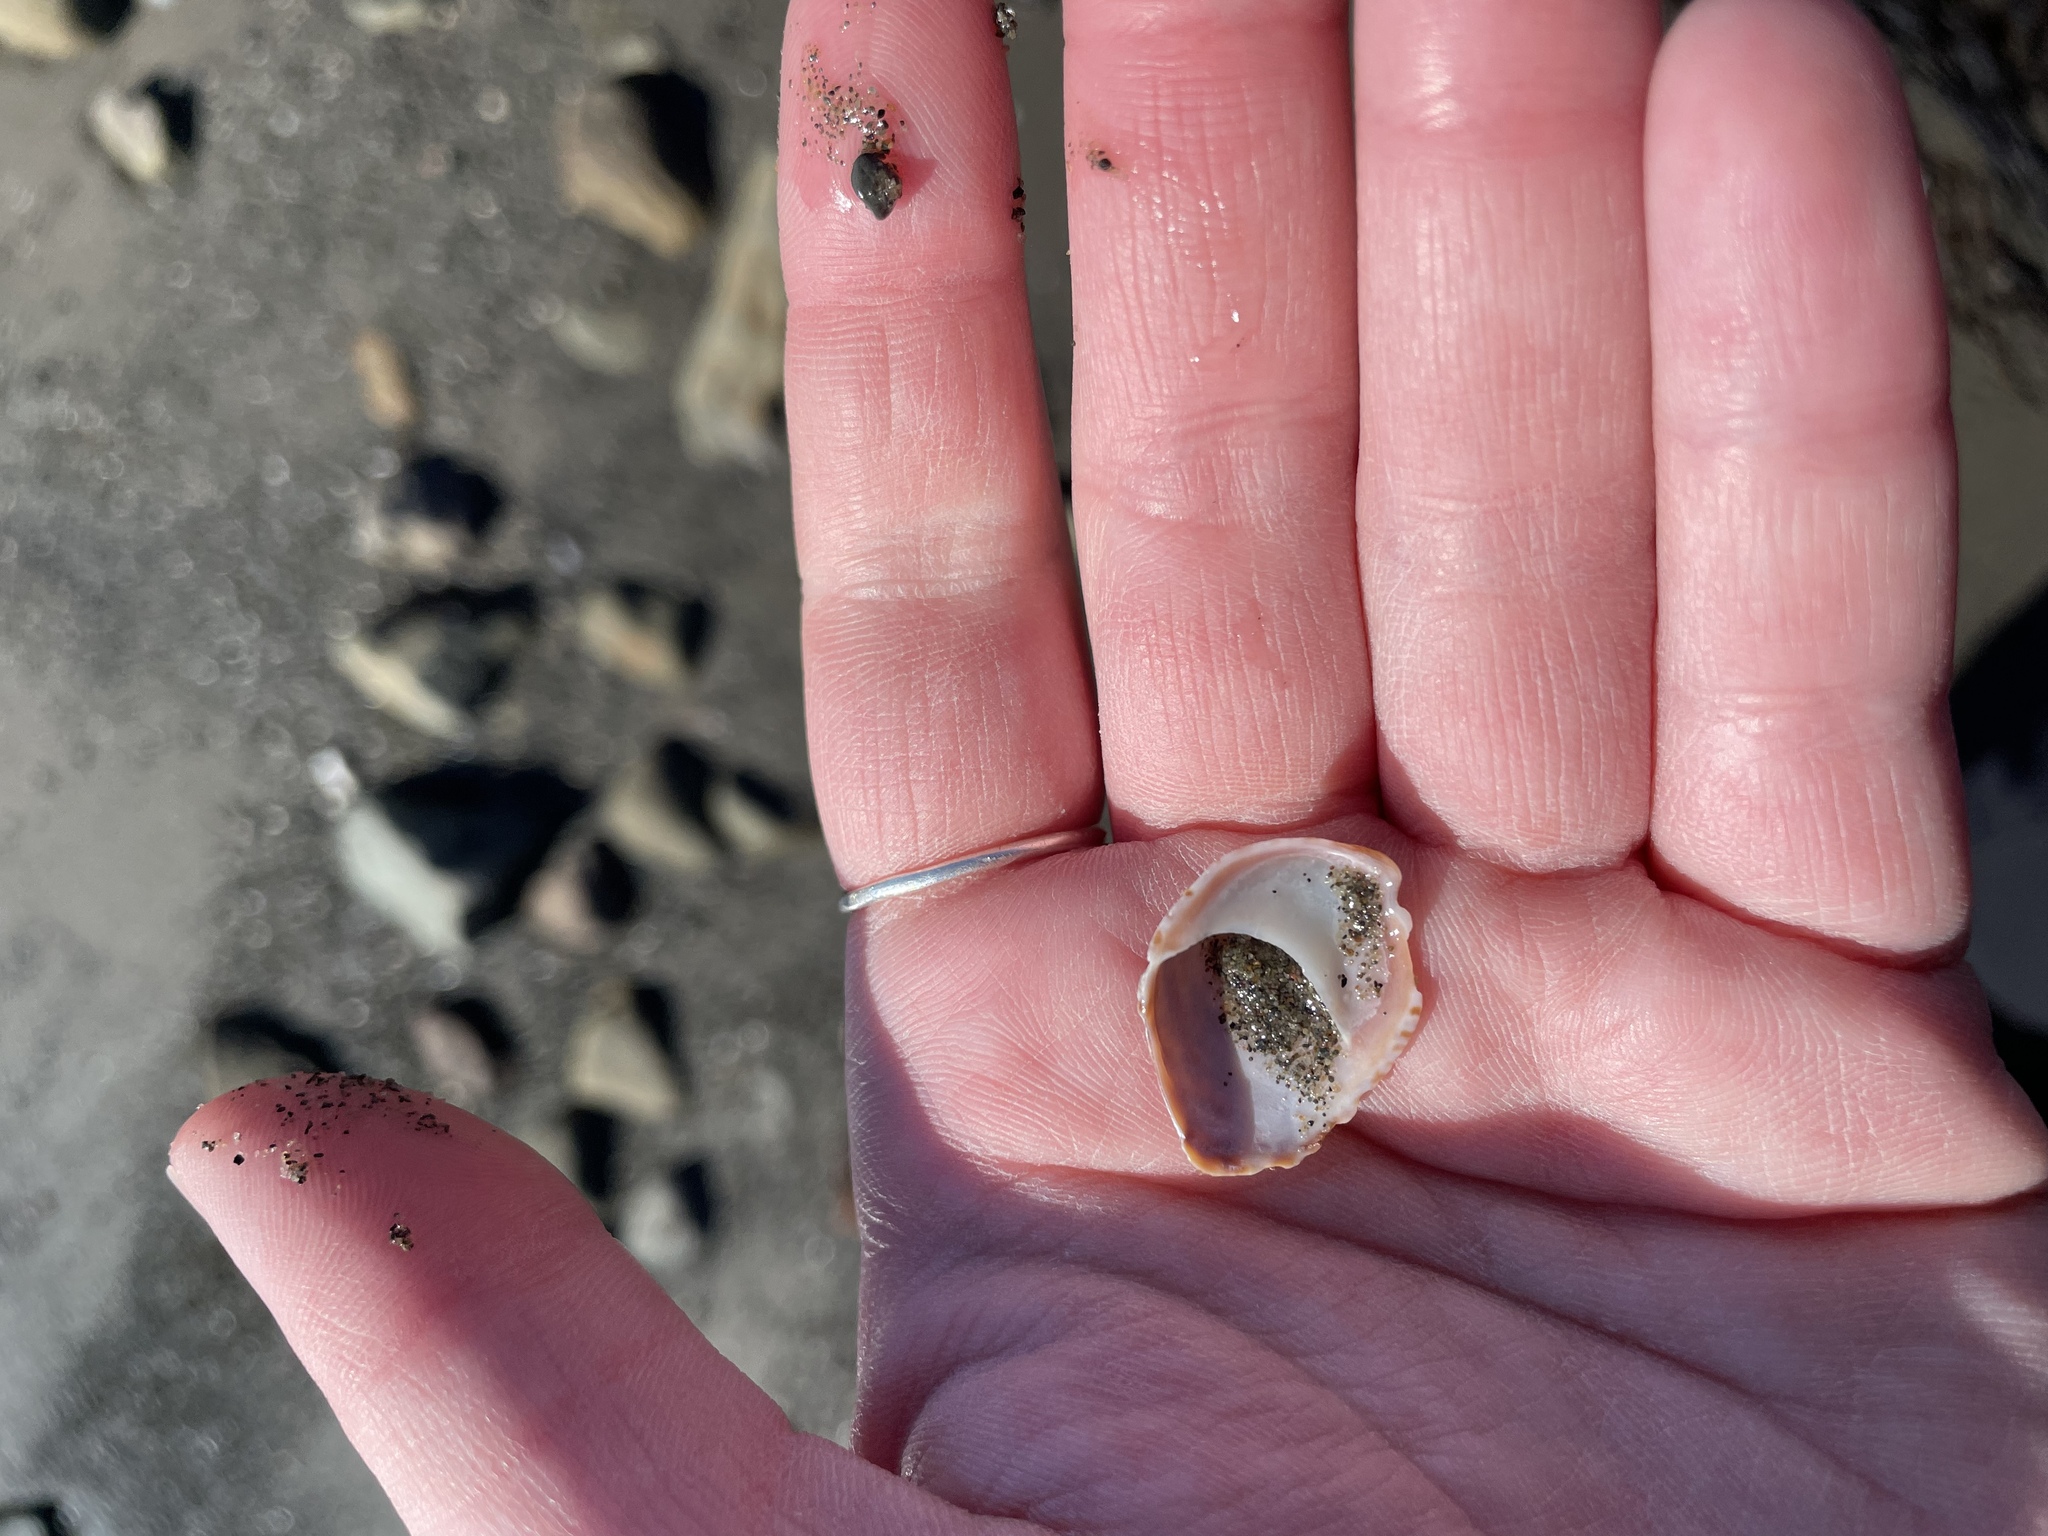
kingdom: Animalia
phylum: Mollusca
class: Gastropoda
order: Littorinimorpha
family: Calyptraeidae
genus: Crepidula
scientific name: Crepidula fornicata
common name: Slipper limpet
